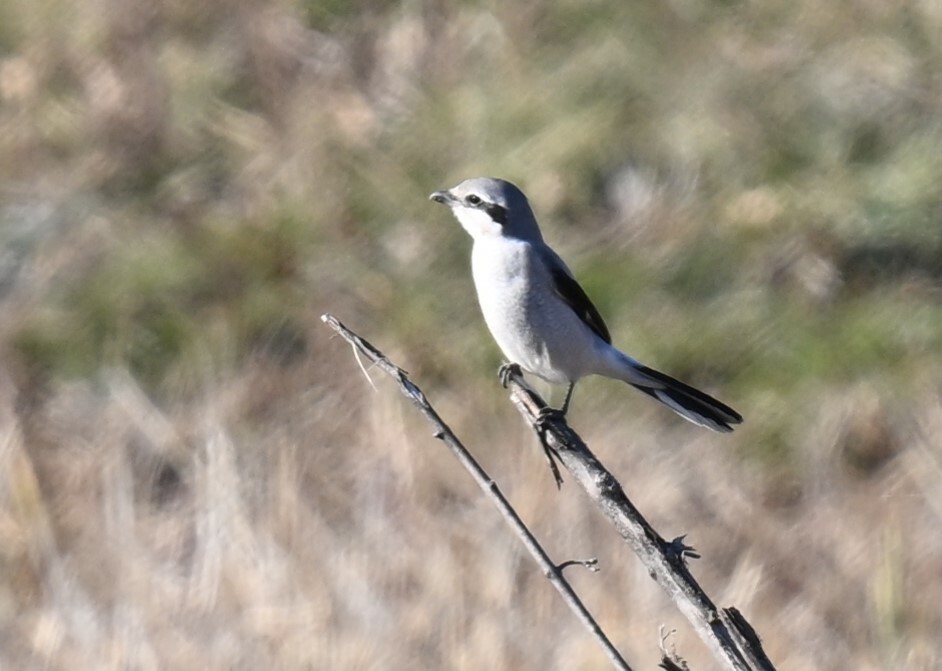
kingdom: Animalia
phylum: Chordata
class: Aves
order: Passeriformes
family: Laniidae
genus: Lanius
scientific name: Lanius borealis
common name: Northern shrike
